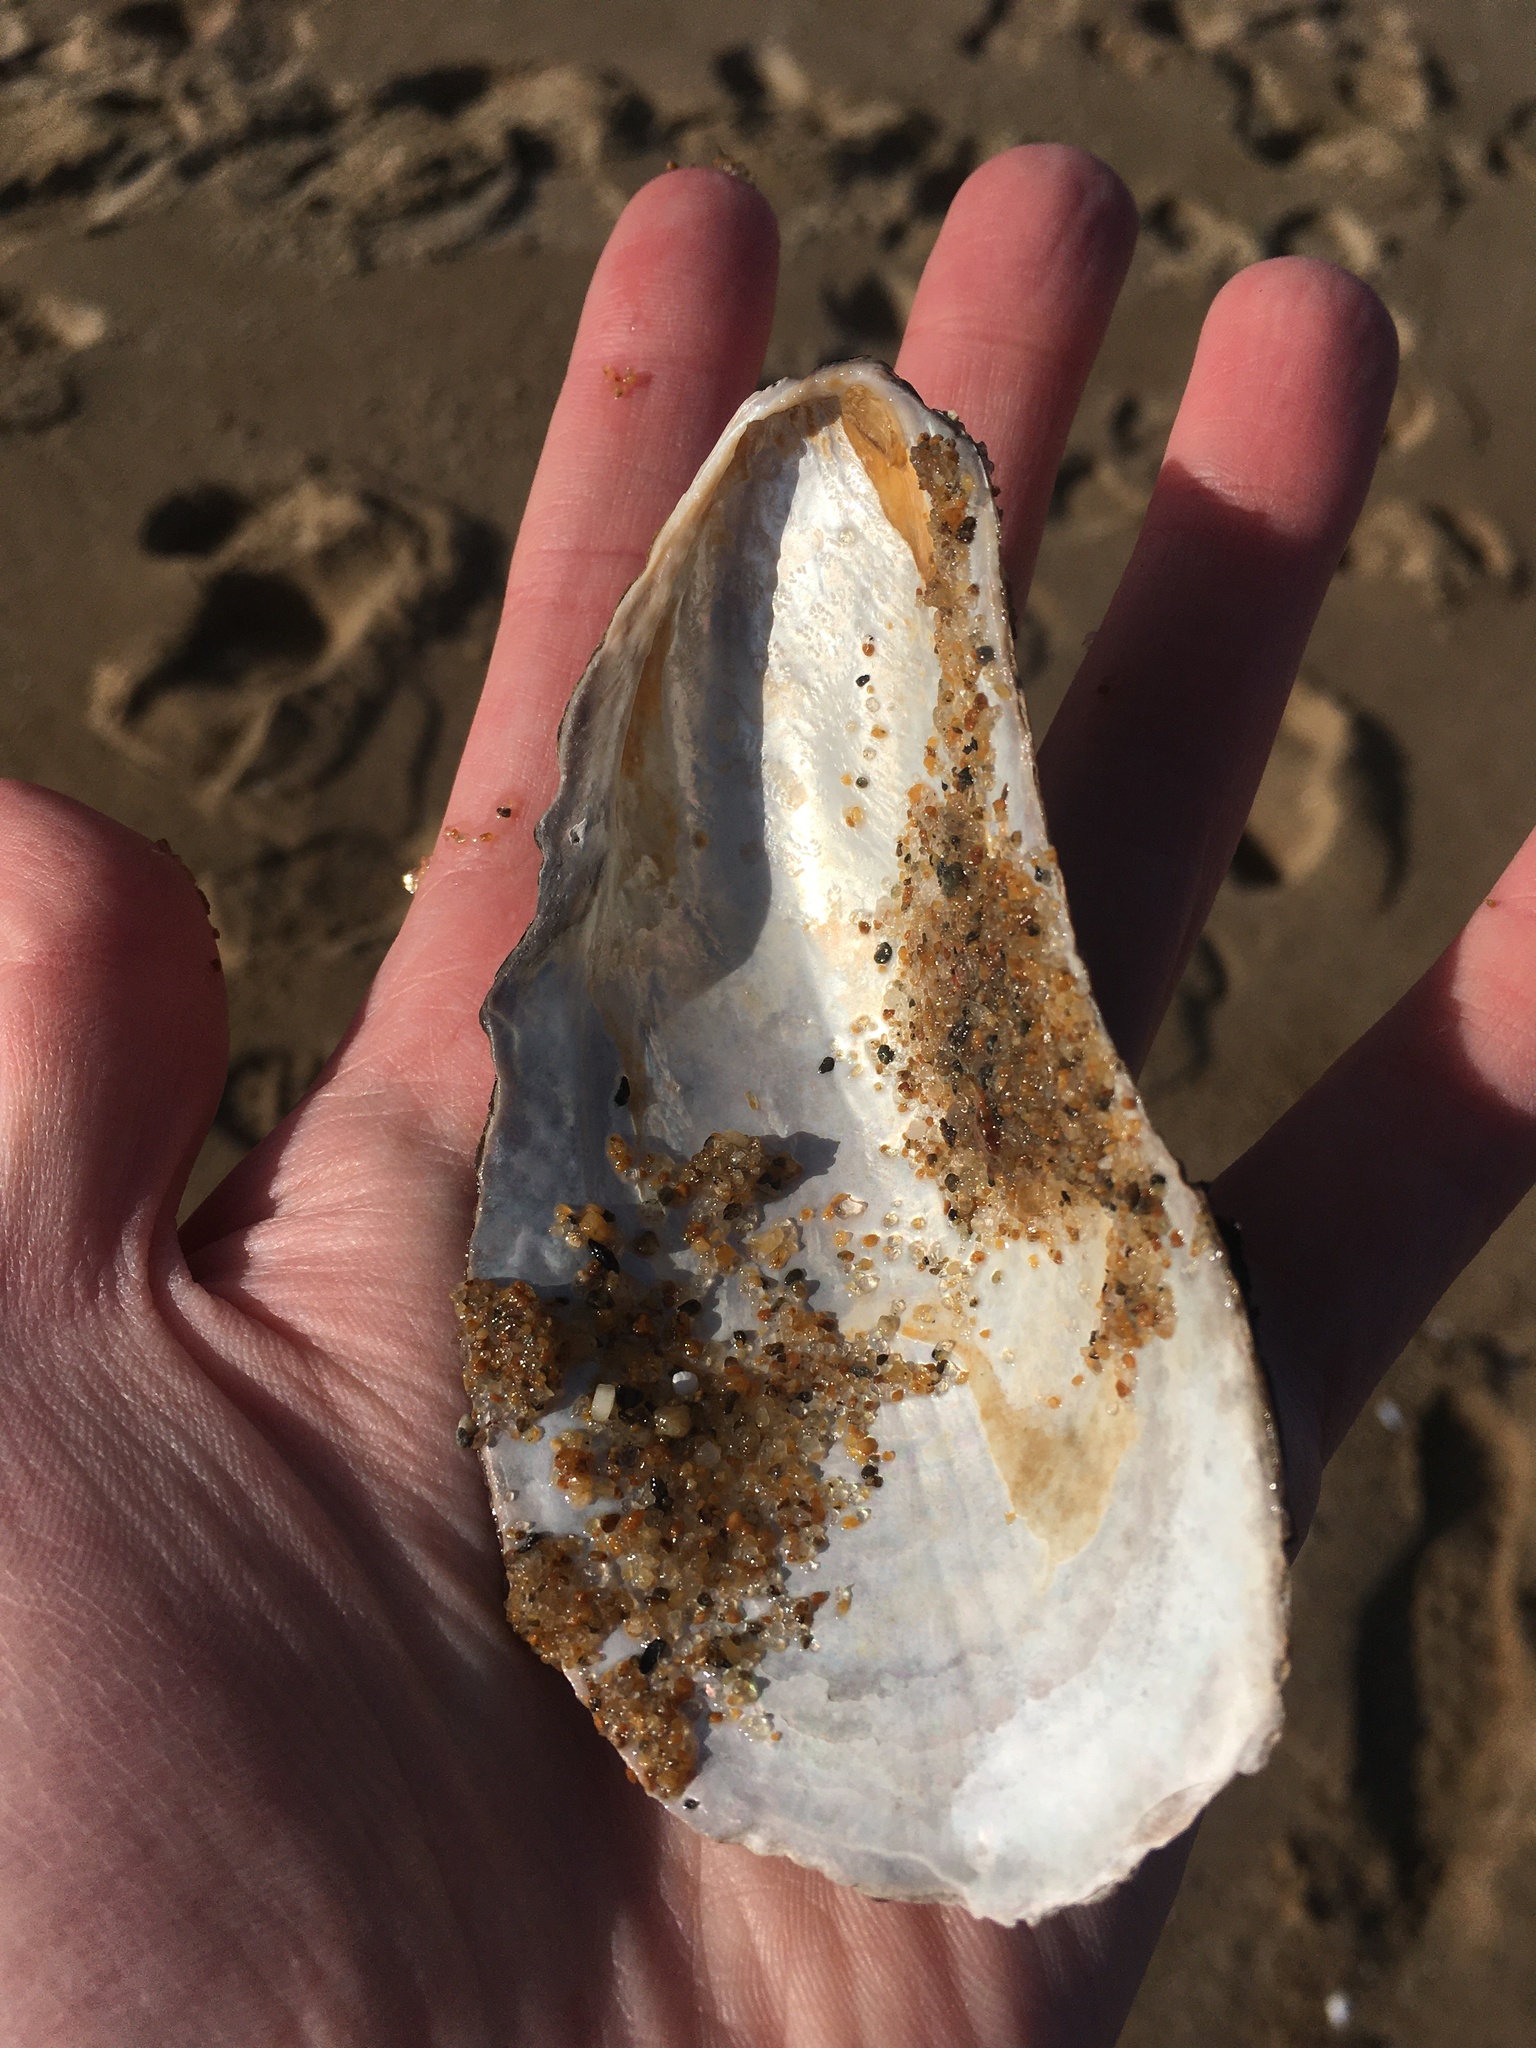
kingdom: Animalia
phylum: Mollusca
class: Bivalvia
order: Mytilida
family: Mytilidae
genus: Modiolus
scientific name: Modiolus modiolus
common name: Horse-mussel
